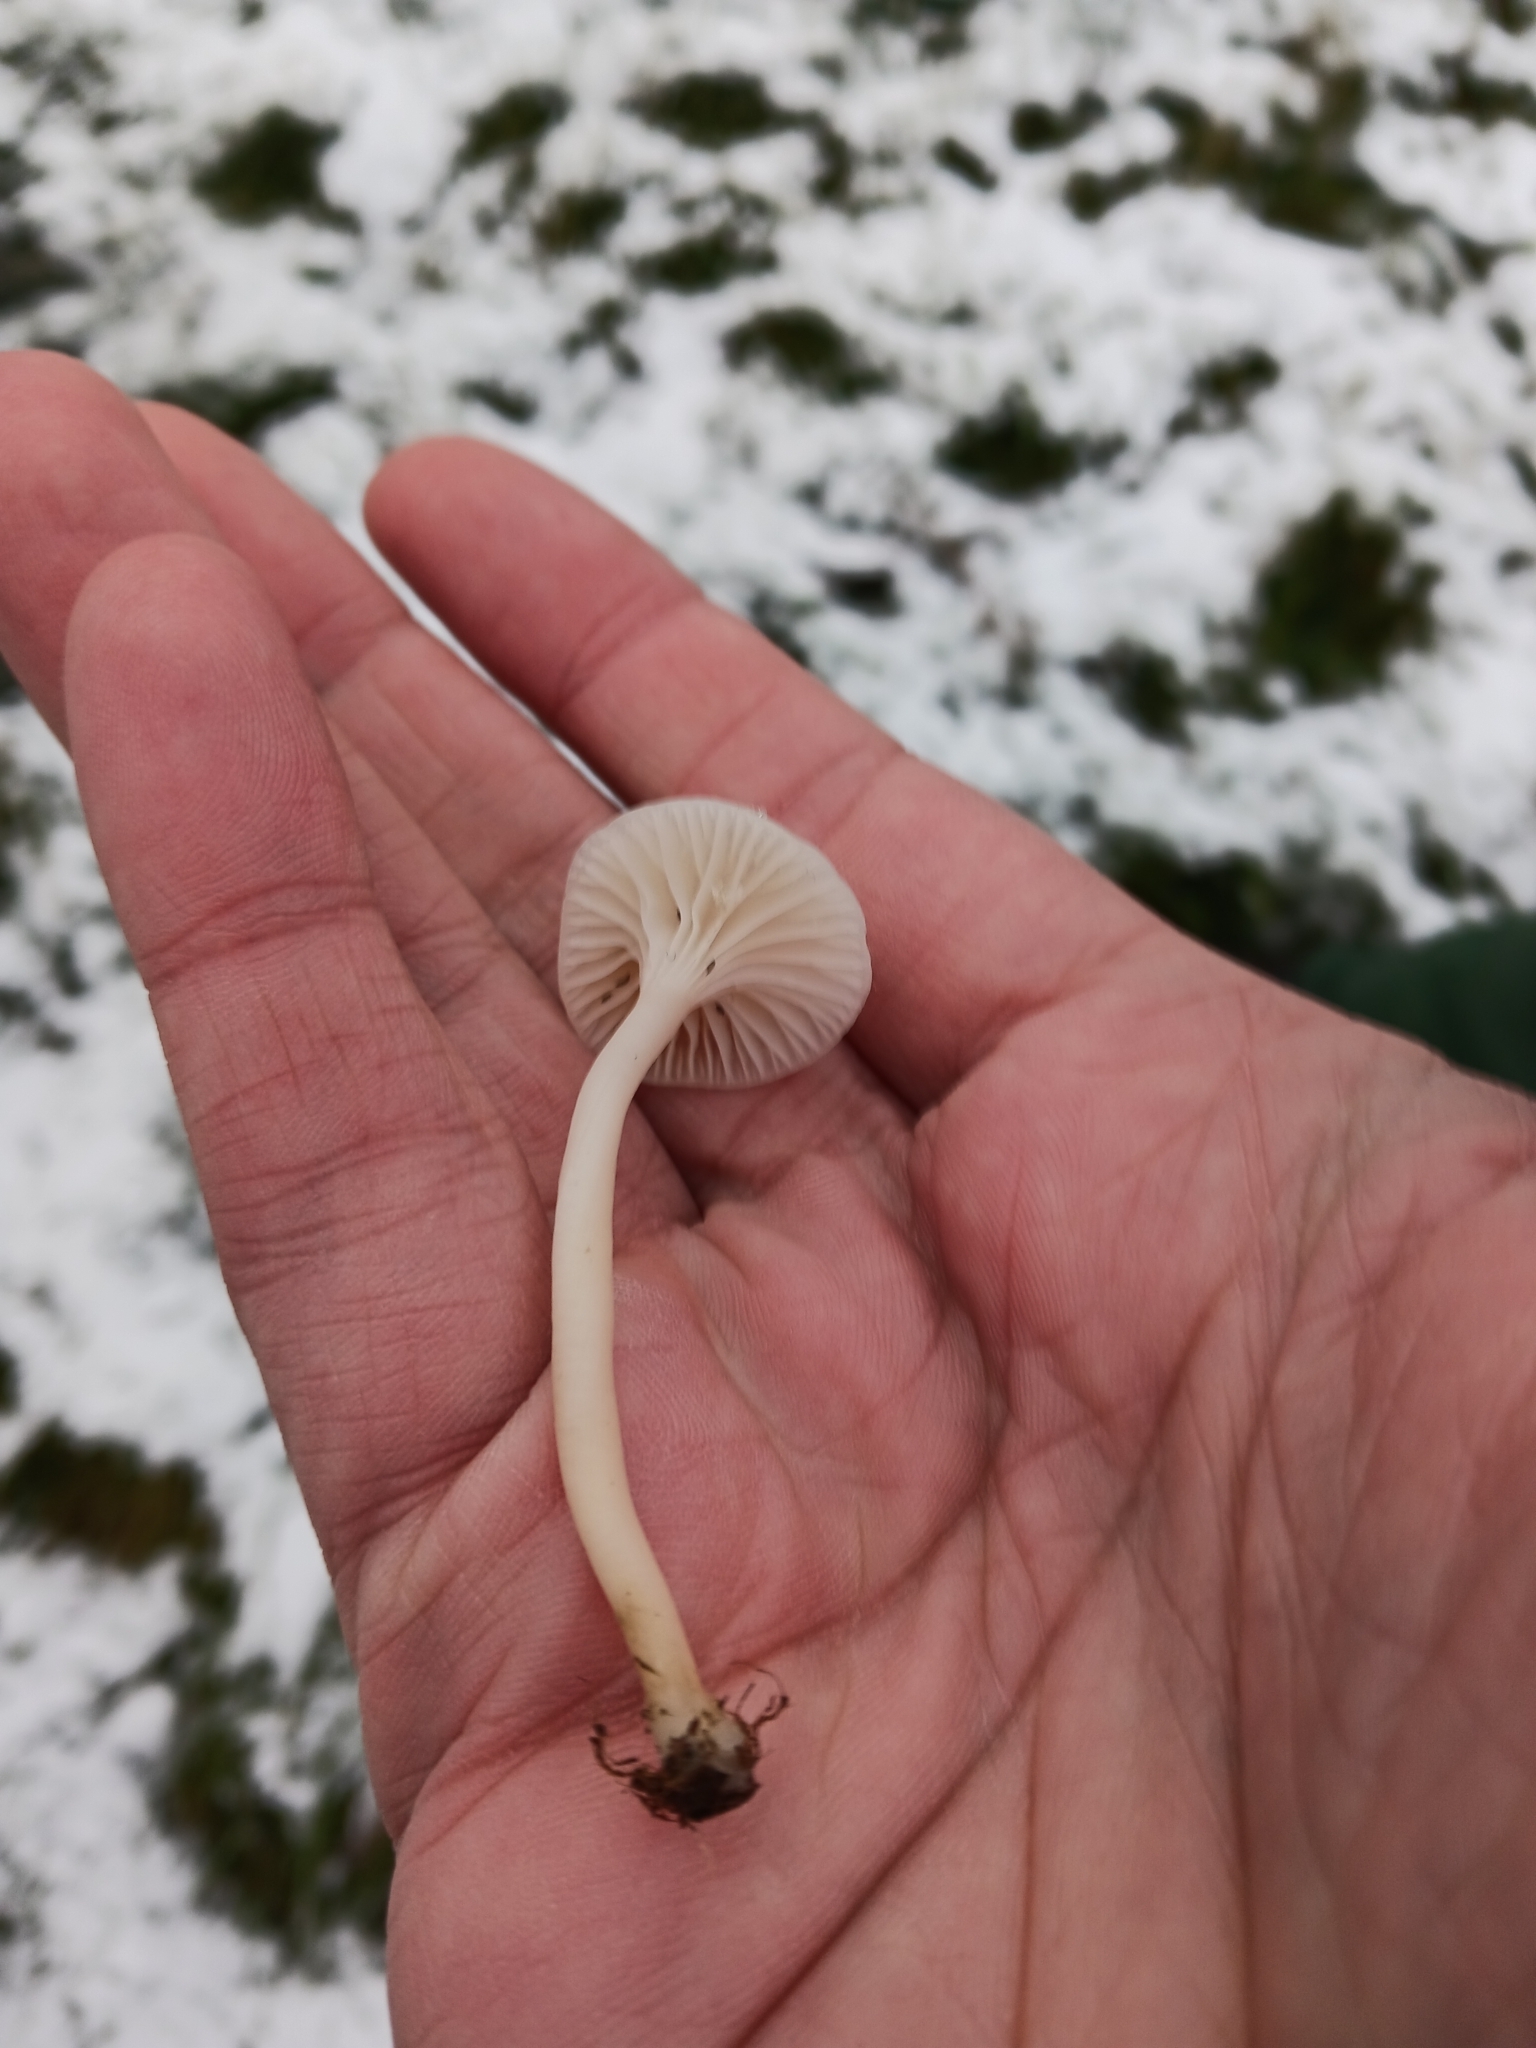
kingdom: Fungi
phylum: Basidiomycota
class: Agaricomycetes
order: Agaricales
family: Hygrophoraceae
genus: Cuphophyllus
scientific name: Cuphophyllus virgineus
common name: Snowy waxcap
